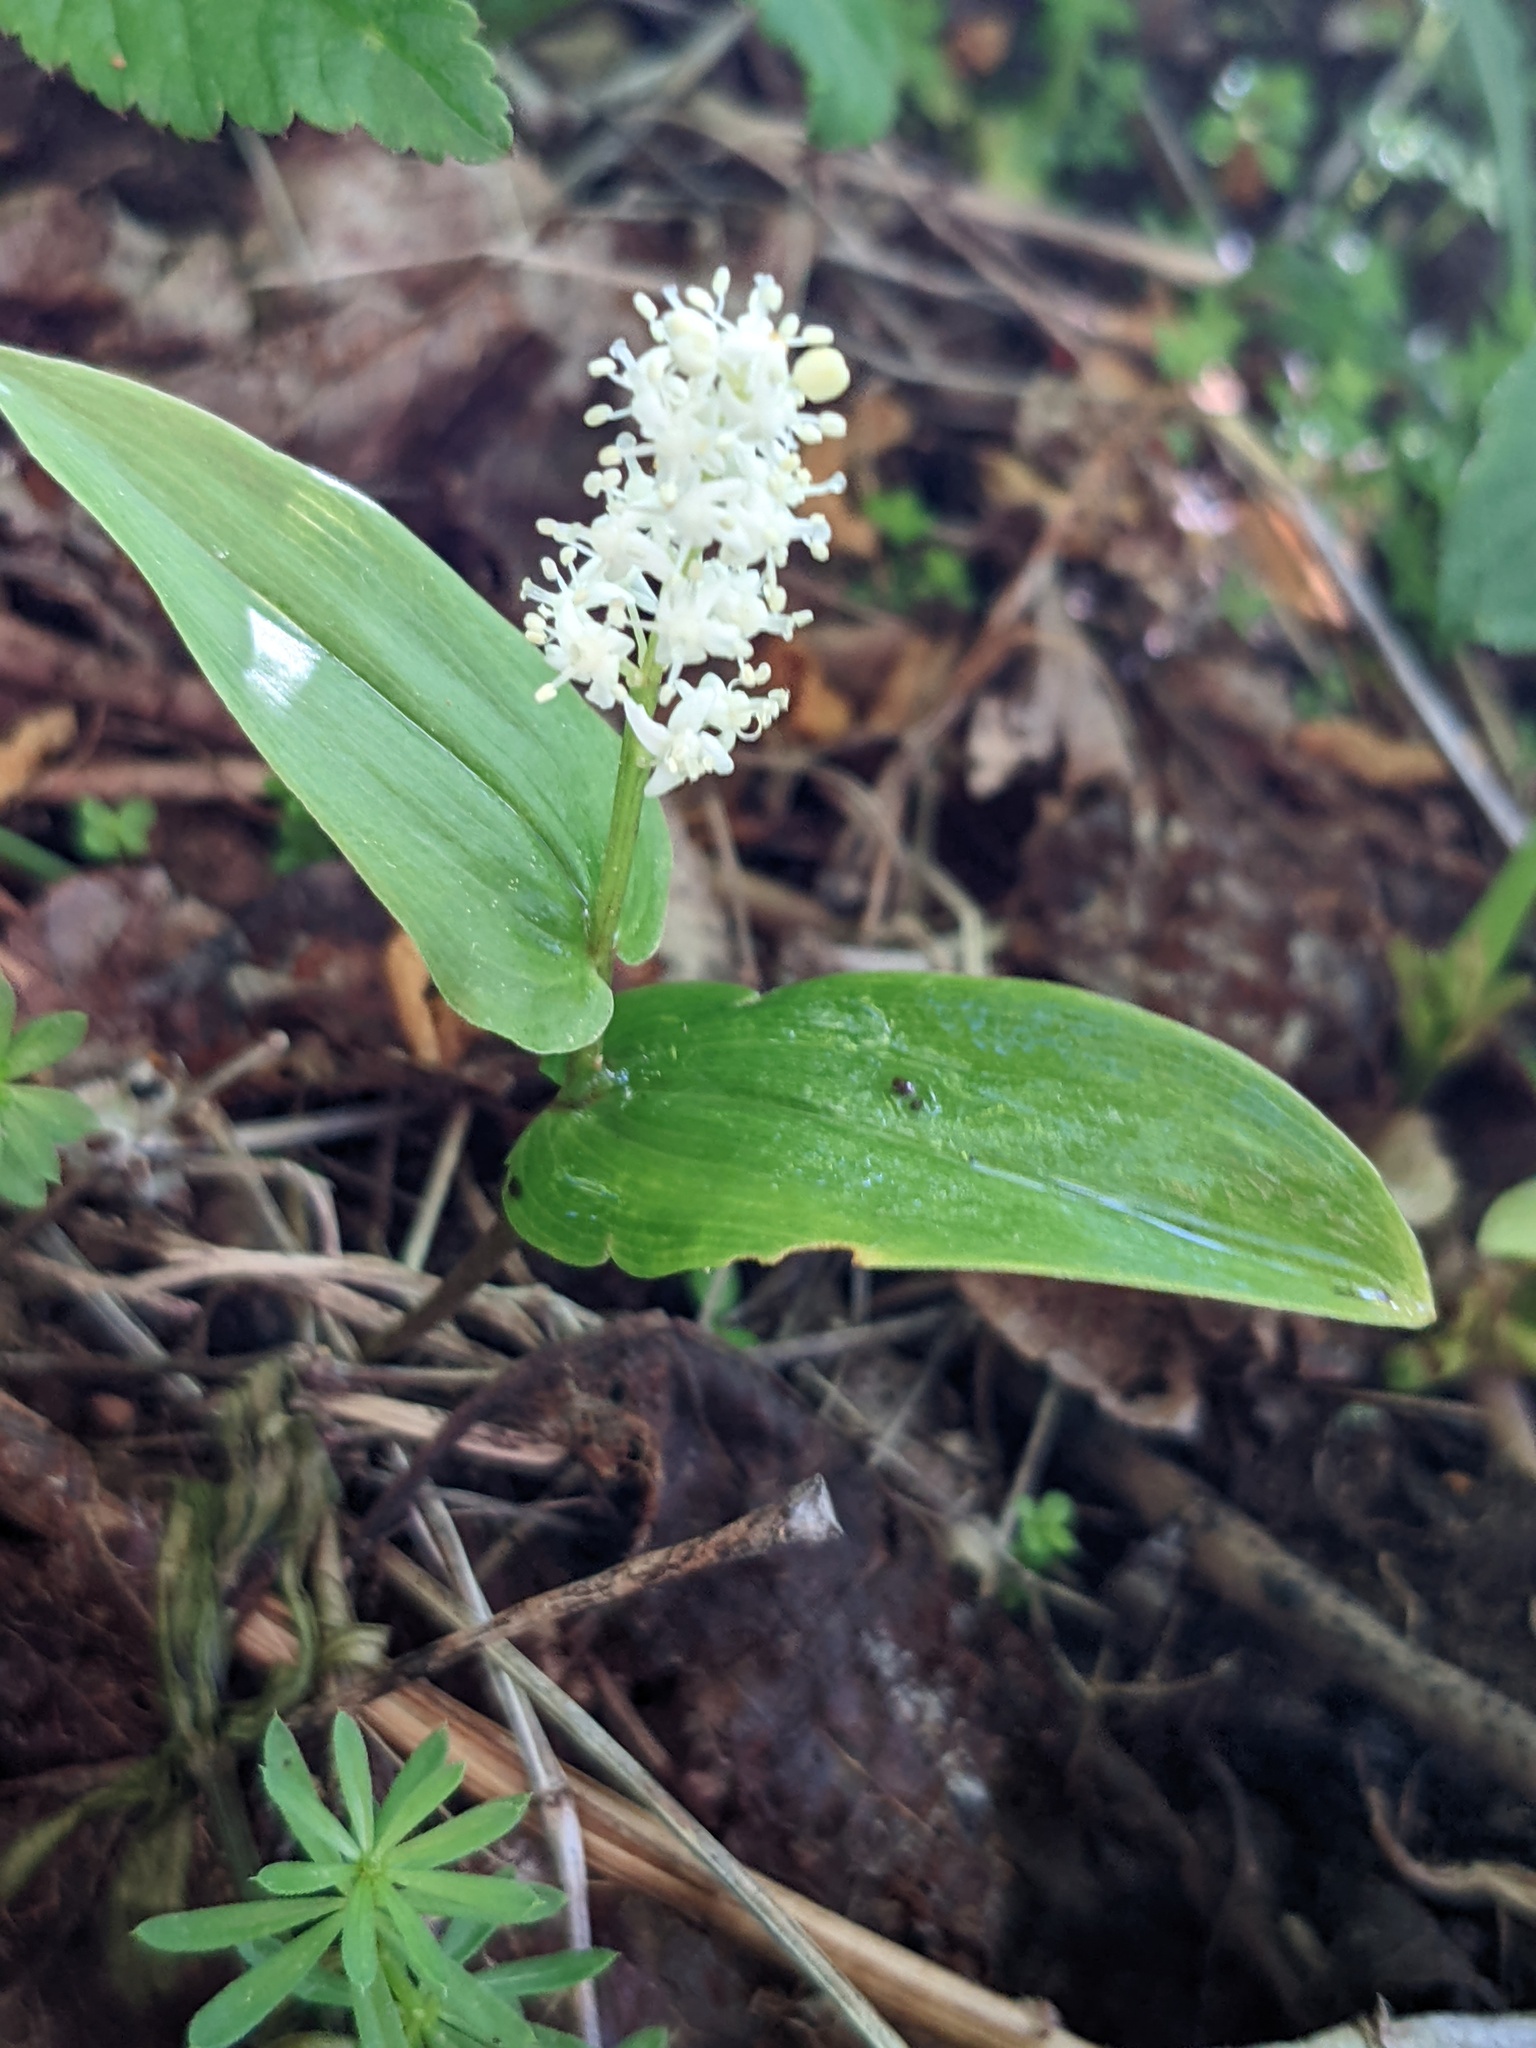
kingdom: Plantae
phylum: Tracheophyta
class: Liliopsida
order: Asparagales
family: Asparagaceae
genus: Maianthemum
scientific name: Maianthemum canadense
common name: False lily-of-the-valley
